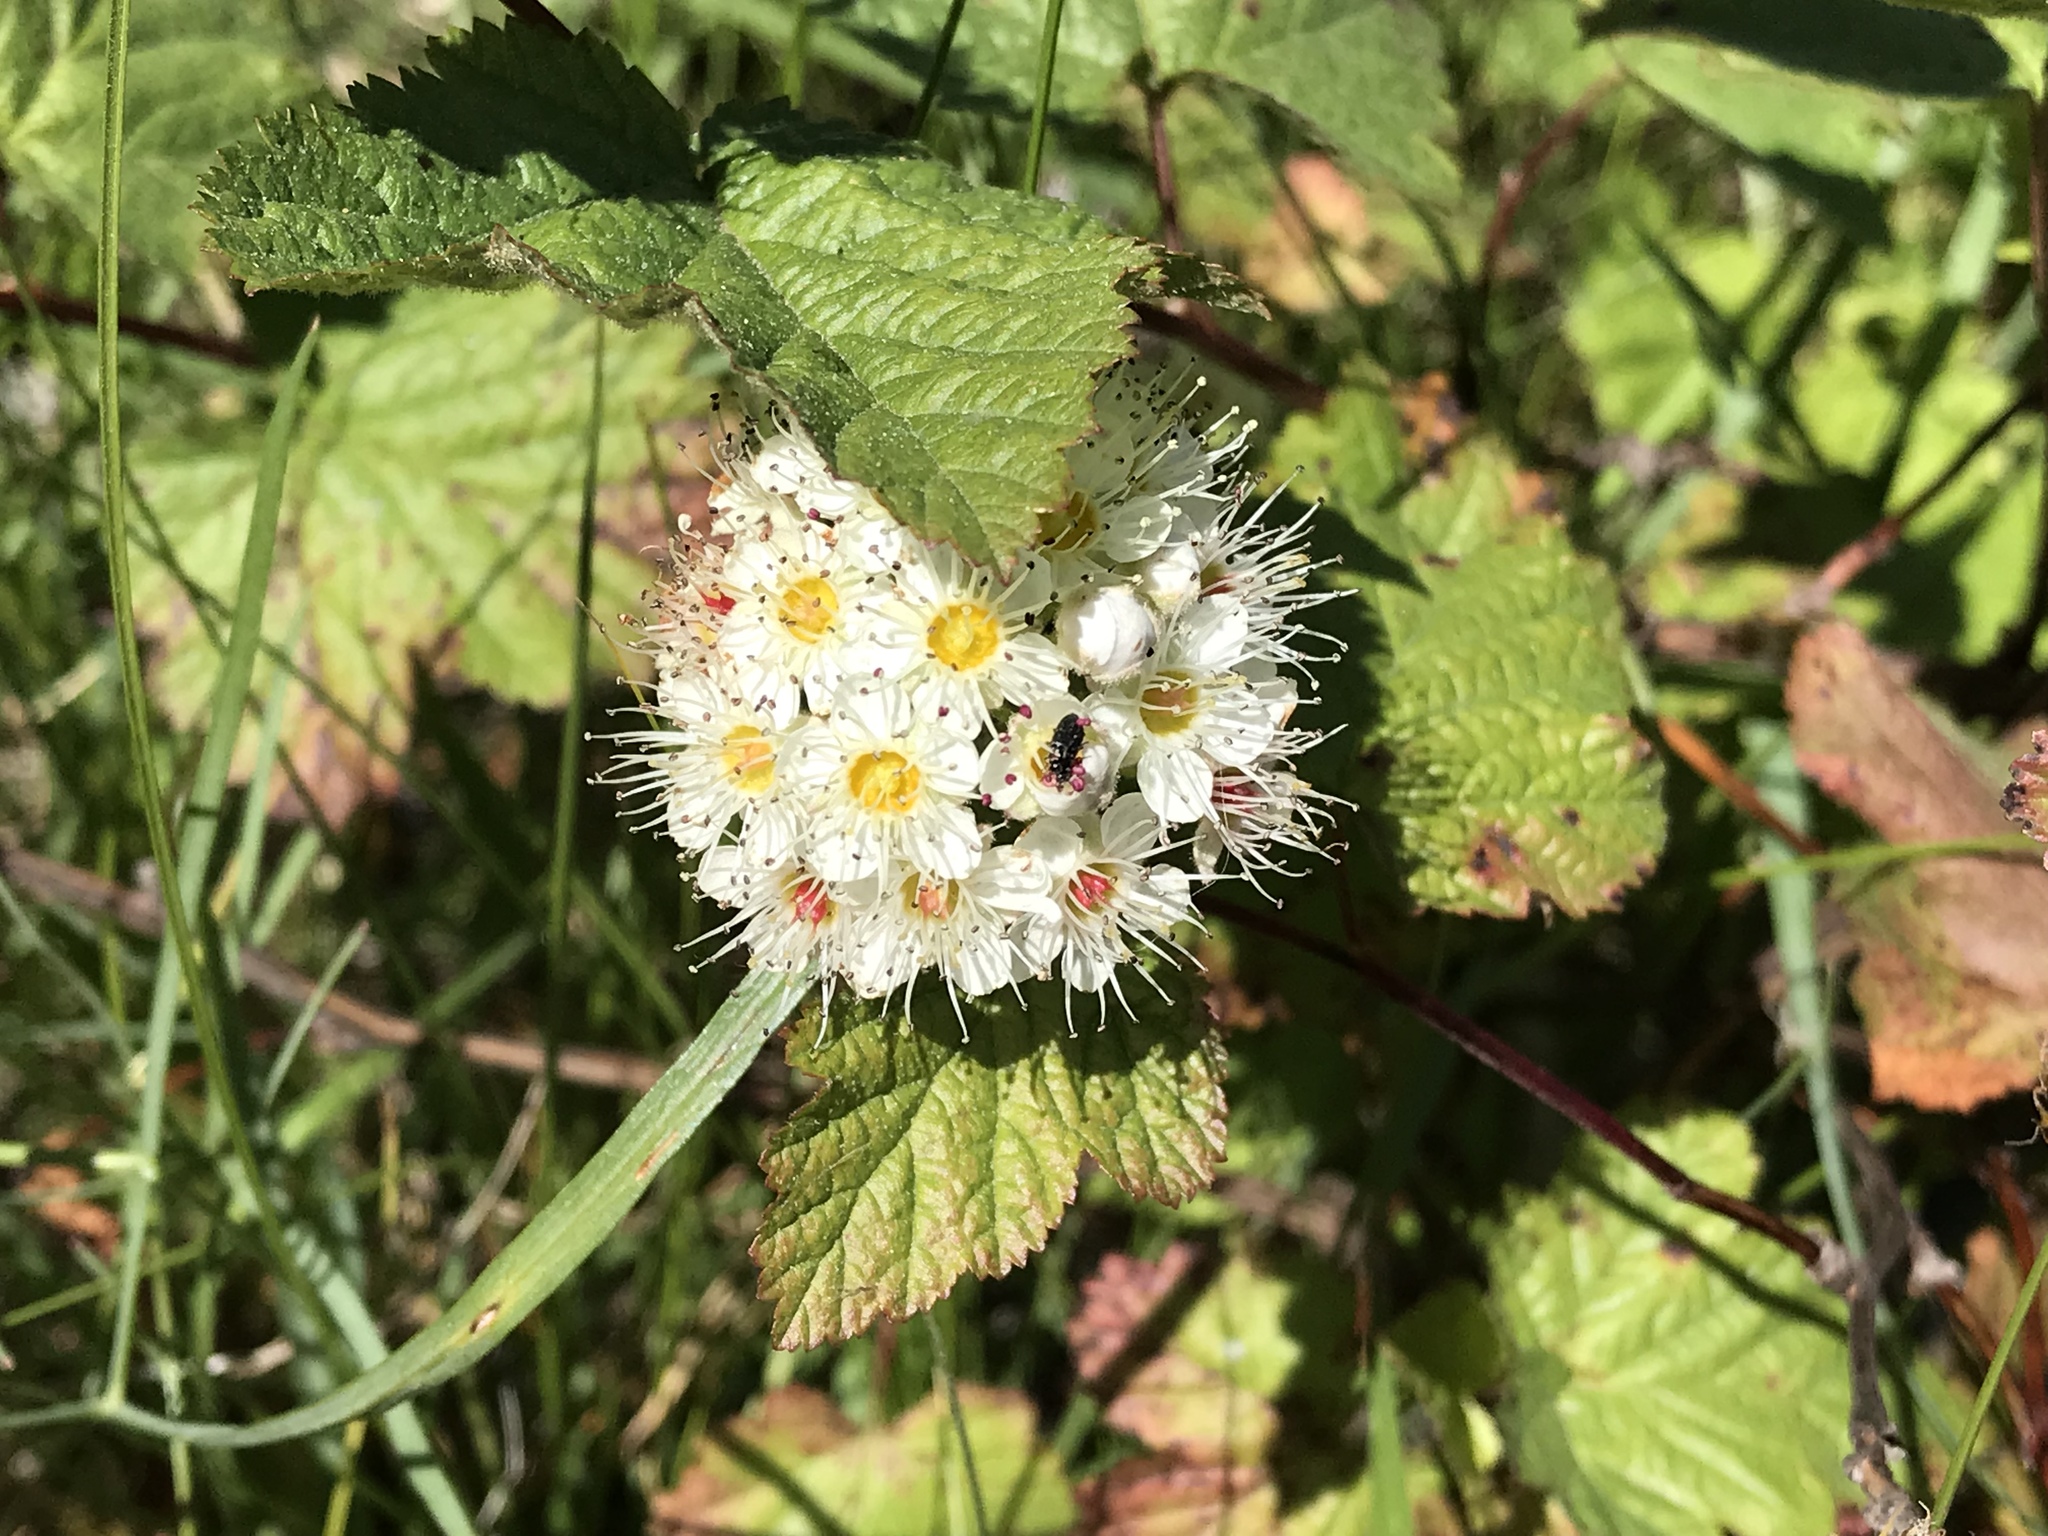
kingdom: Plantae
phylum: Tracheophyta
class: Magnoliopsida
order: Rosales
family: Rosaceae
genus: Physocarpus
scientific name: Physocarpus capitatus
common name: Pacific ninebark
